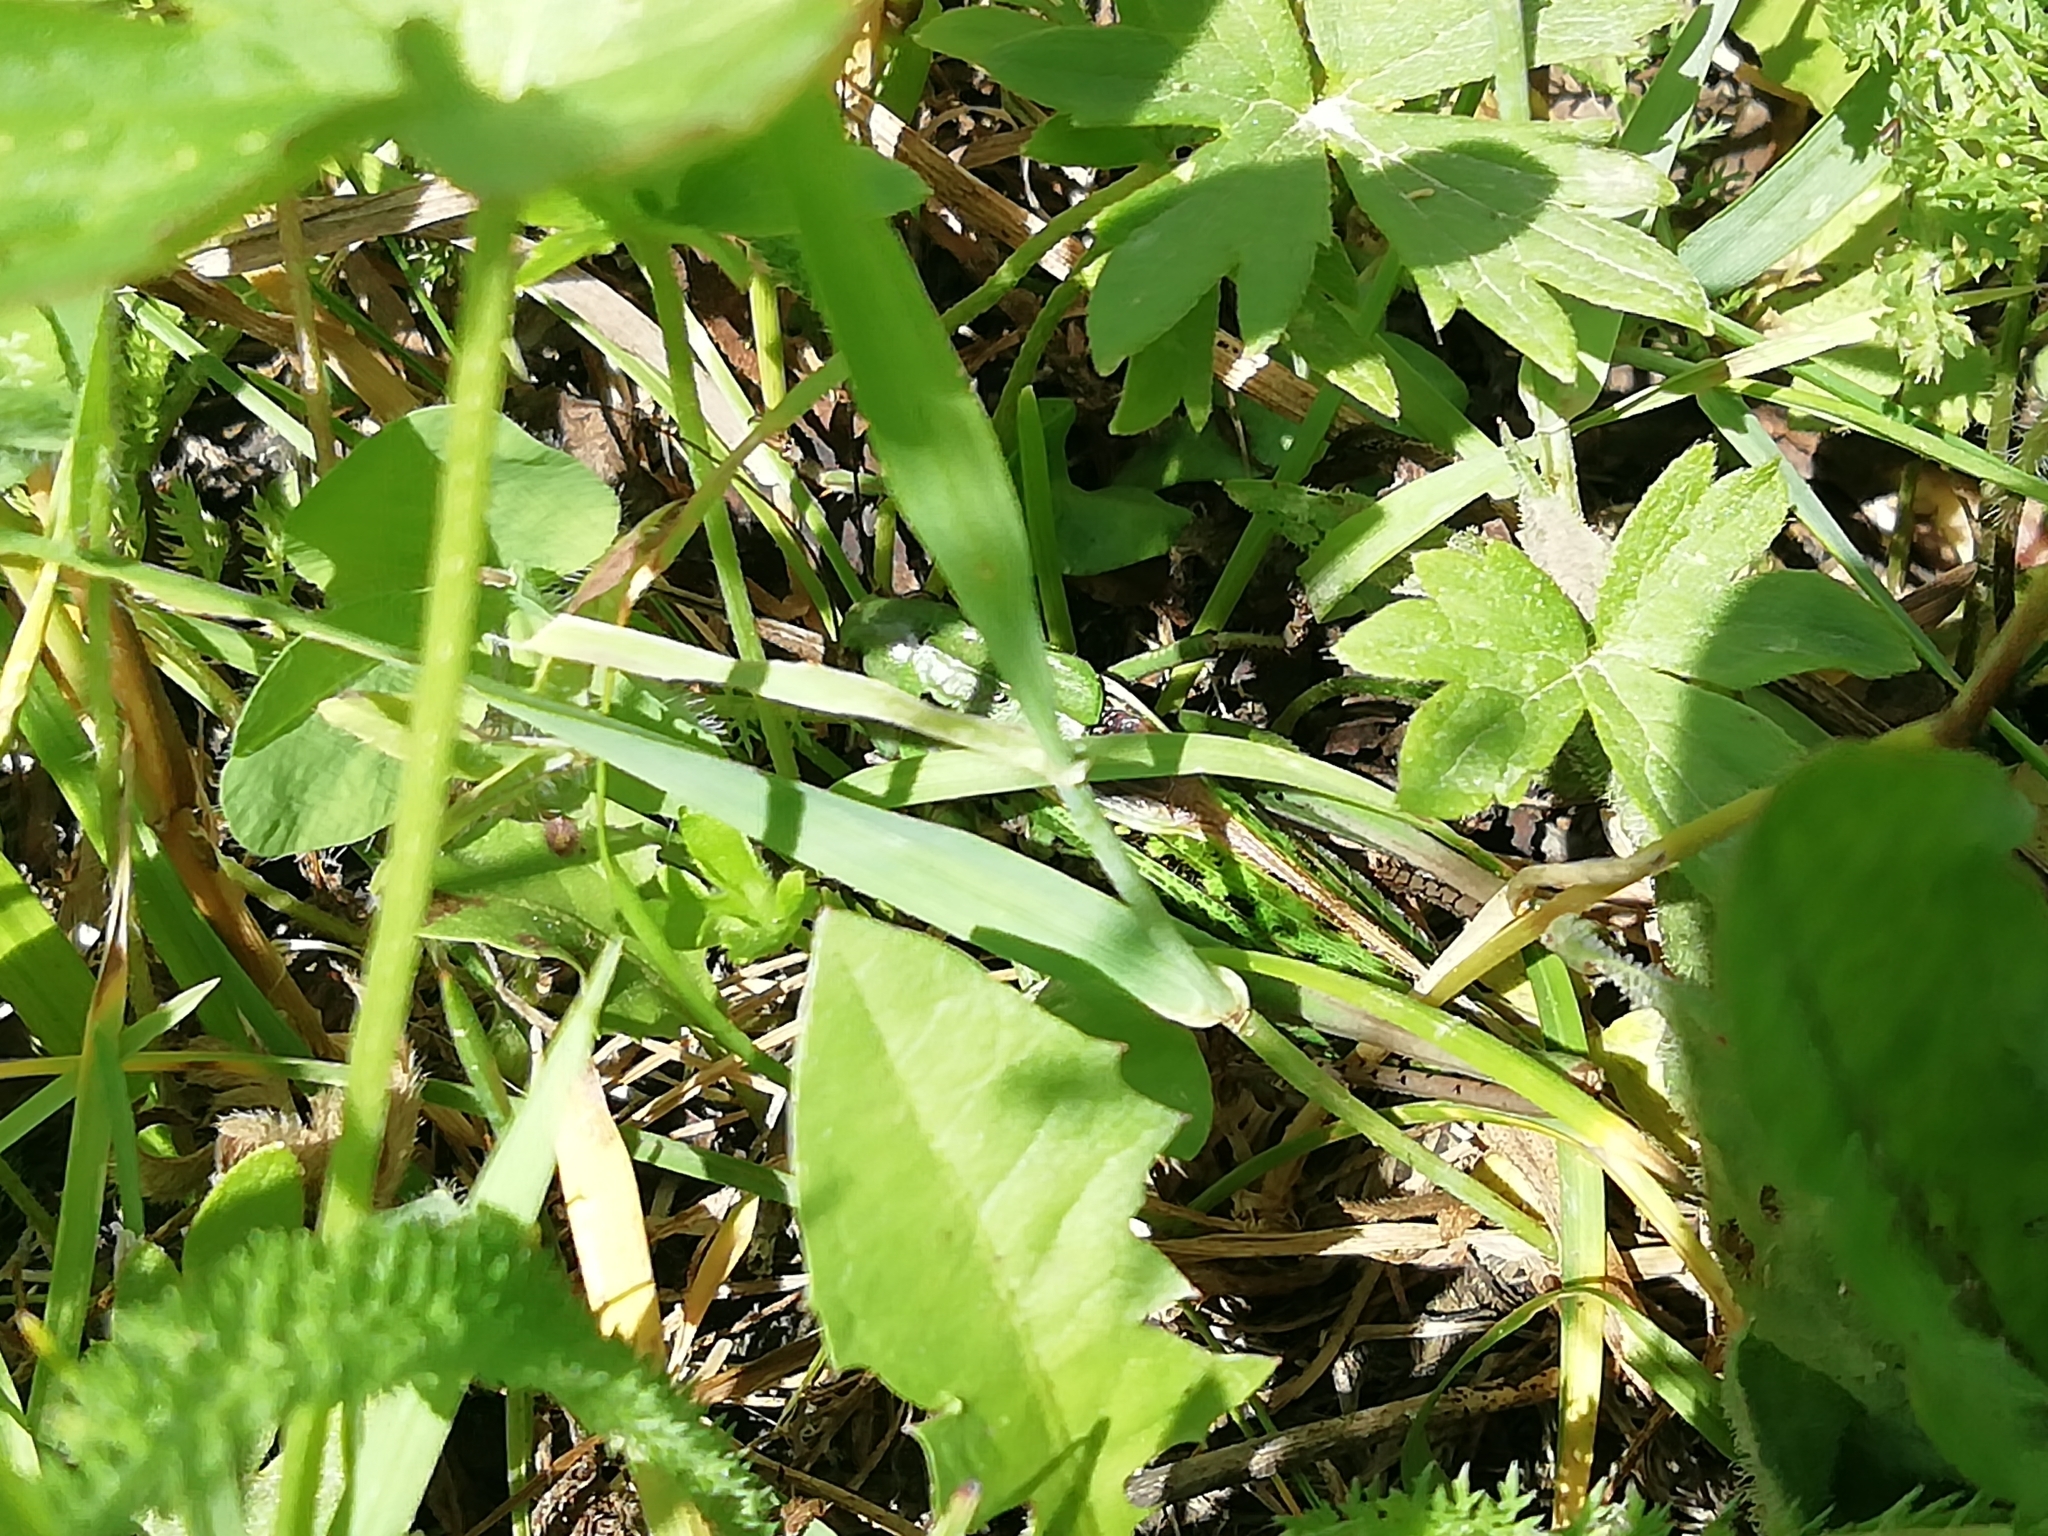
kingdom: Animalia
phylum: Arthropoda
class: Insecta
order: Orthoptera
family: Tettigoniidae
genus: Decticus
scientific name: Decticus verrucivorus
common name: Wart-biter
